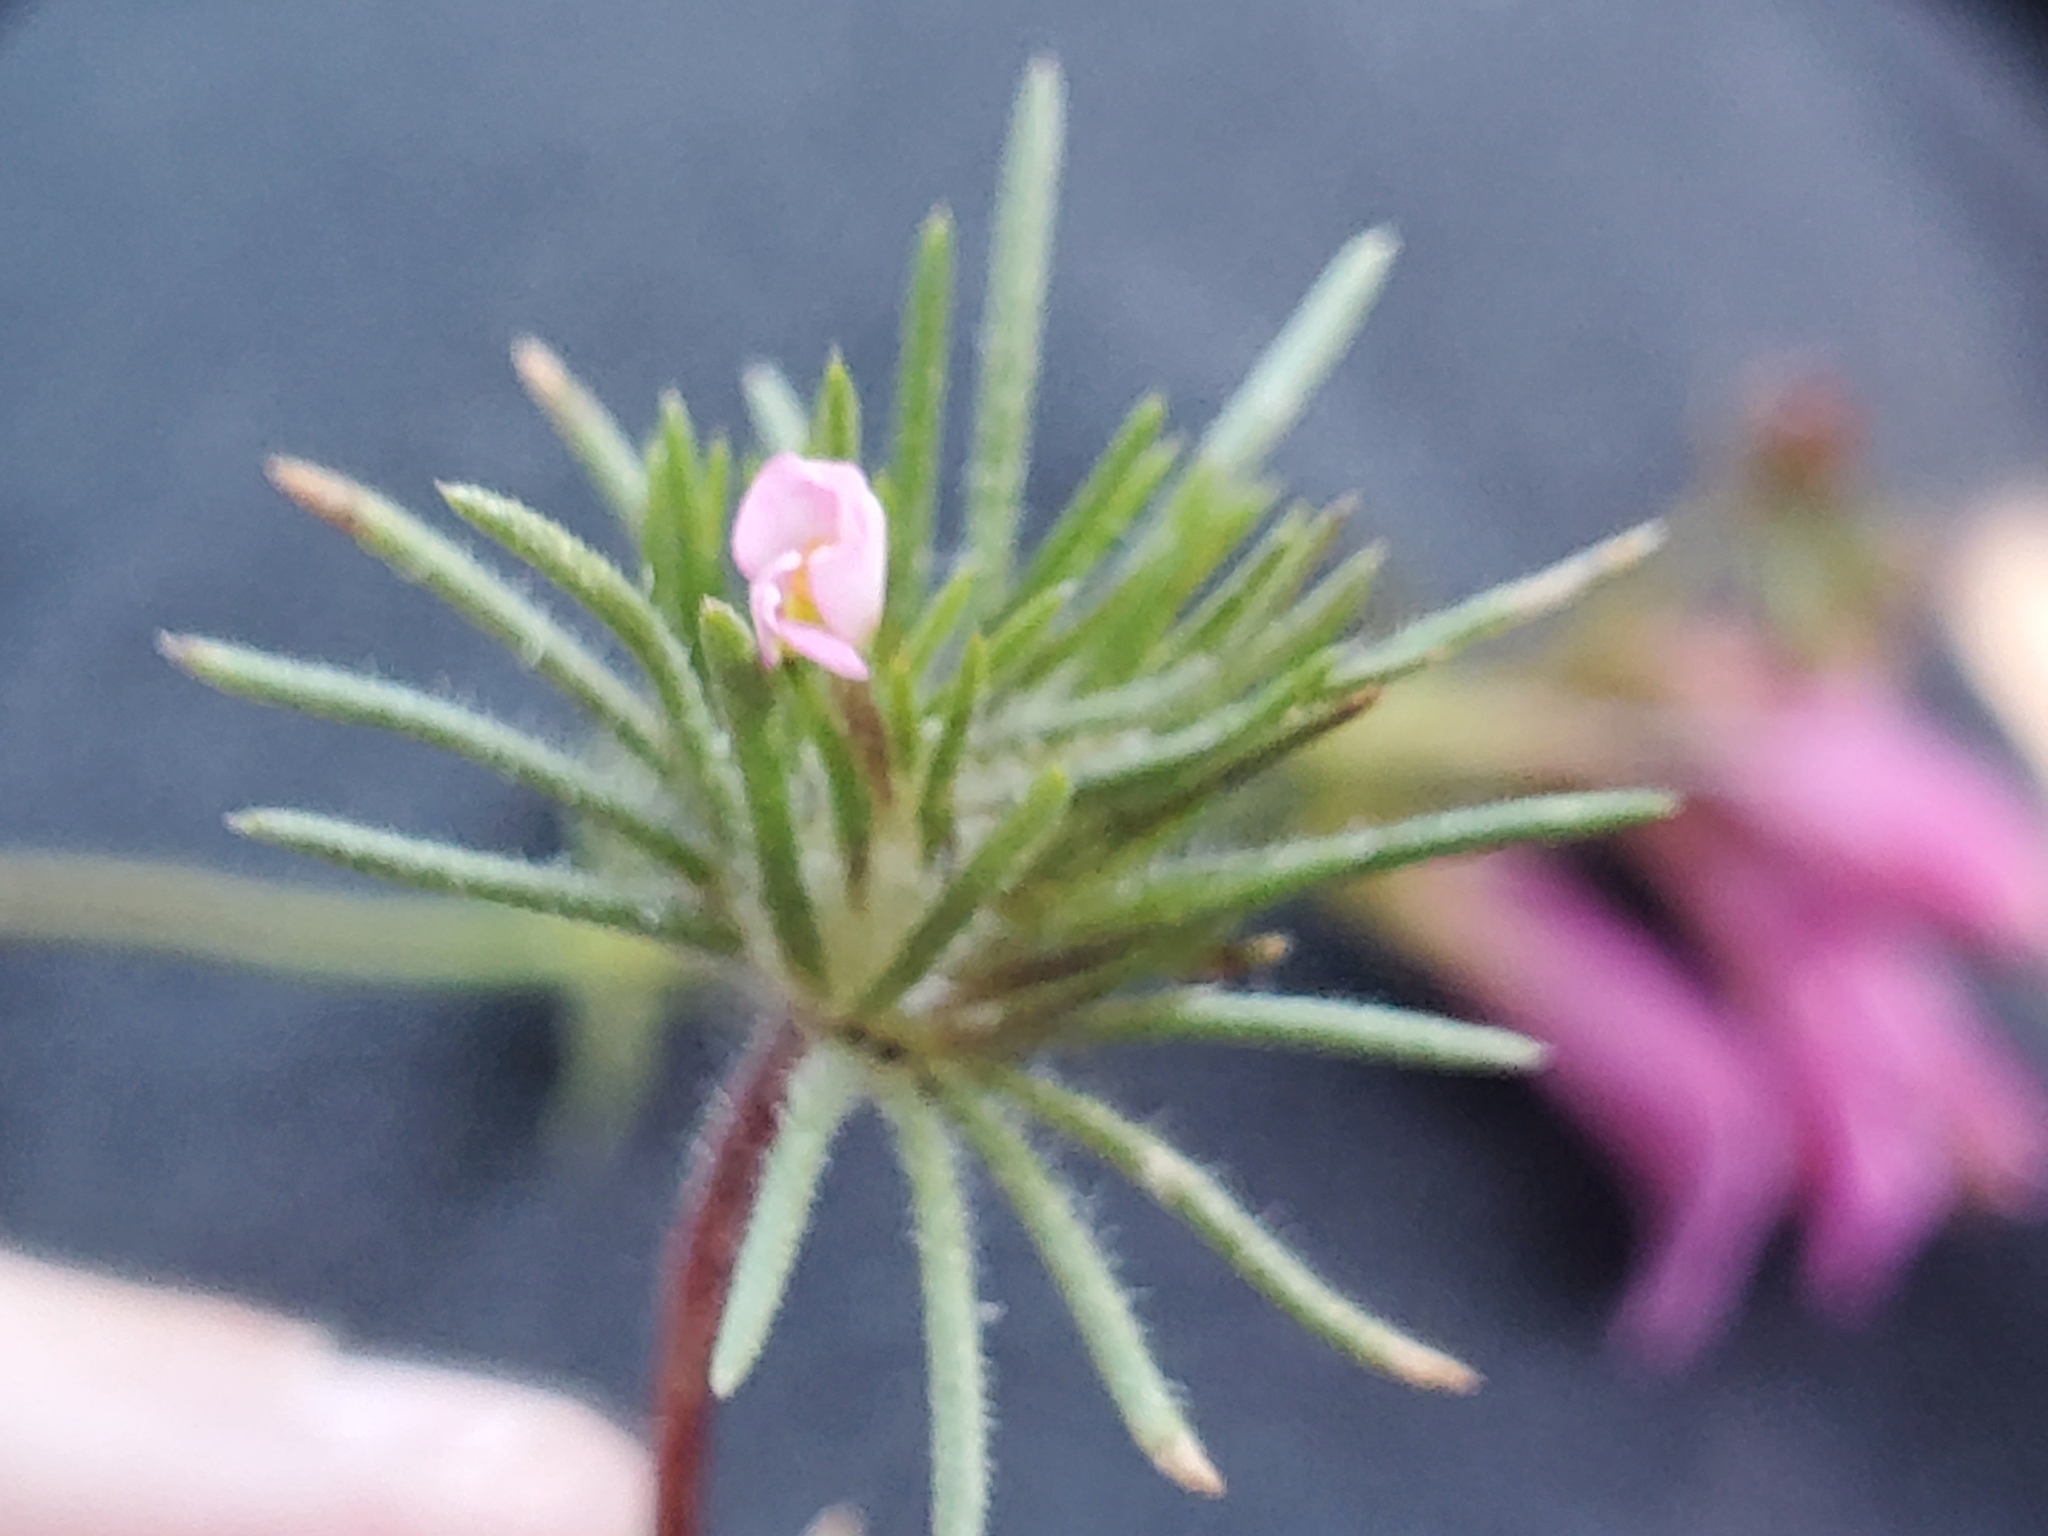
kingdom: Plantae
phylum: Tracheophyta
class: Magnoliopsida
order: Ericales
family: Polemoniaceae
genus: Leptosiphon
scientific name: Leptosiphon ciliatus
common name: Whiskerbrush
